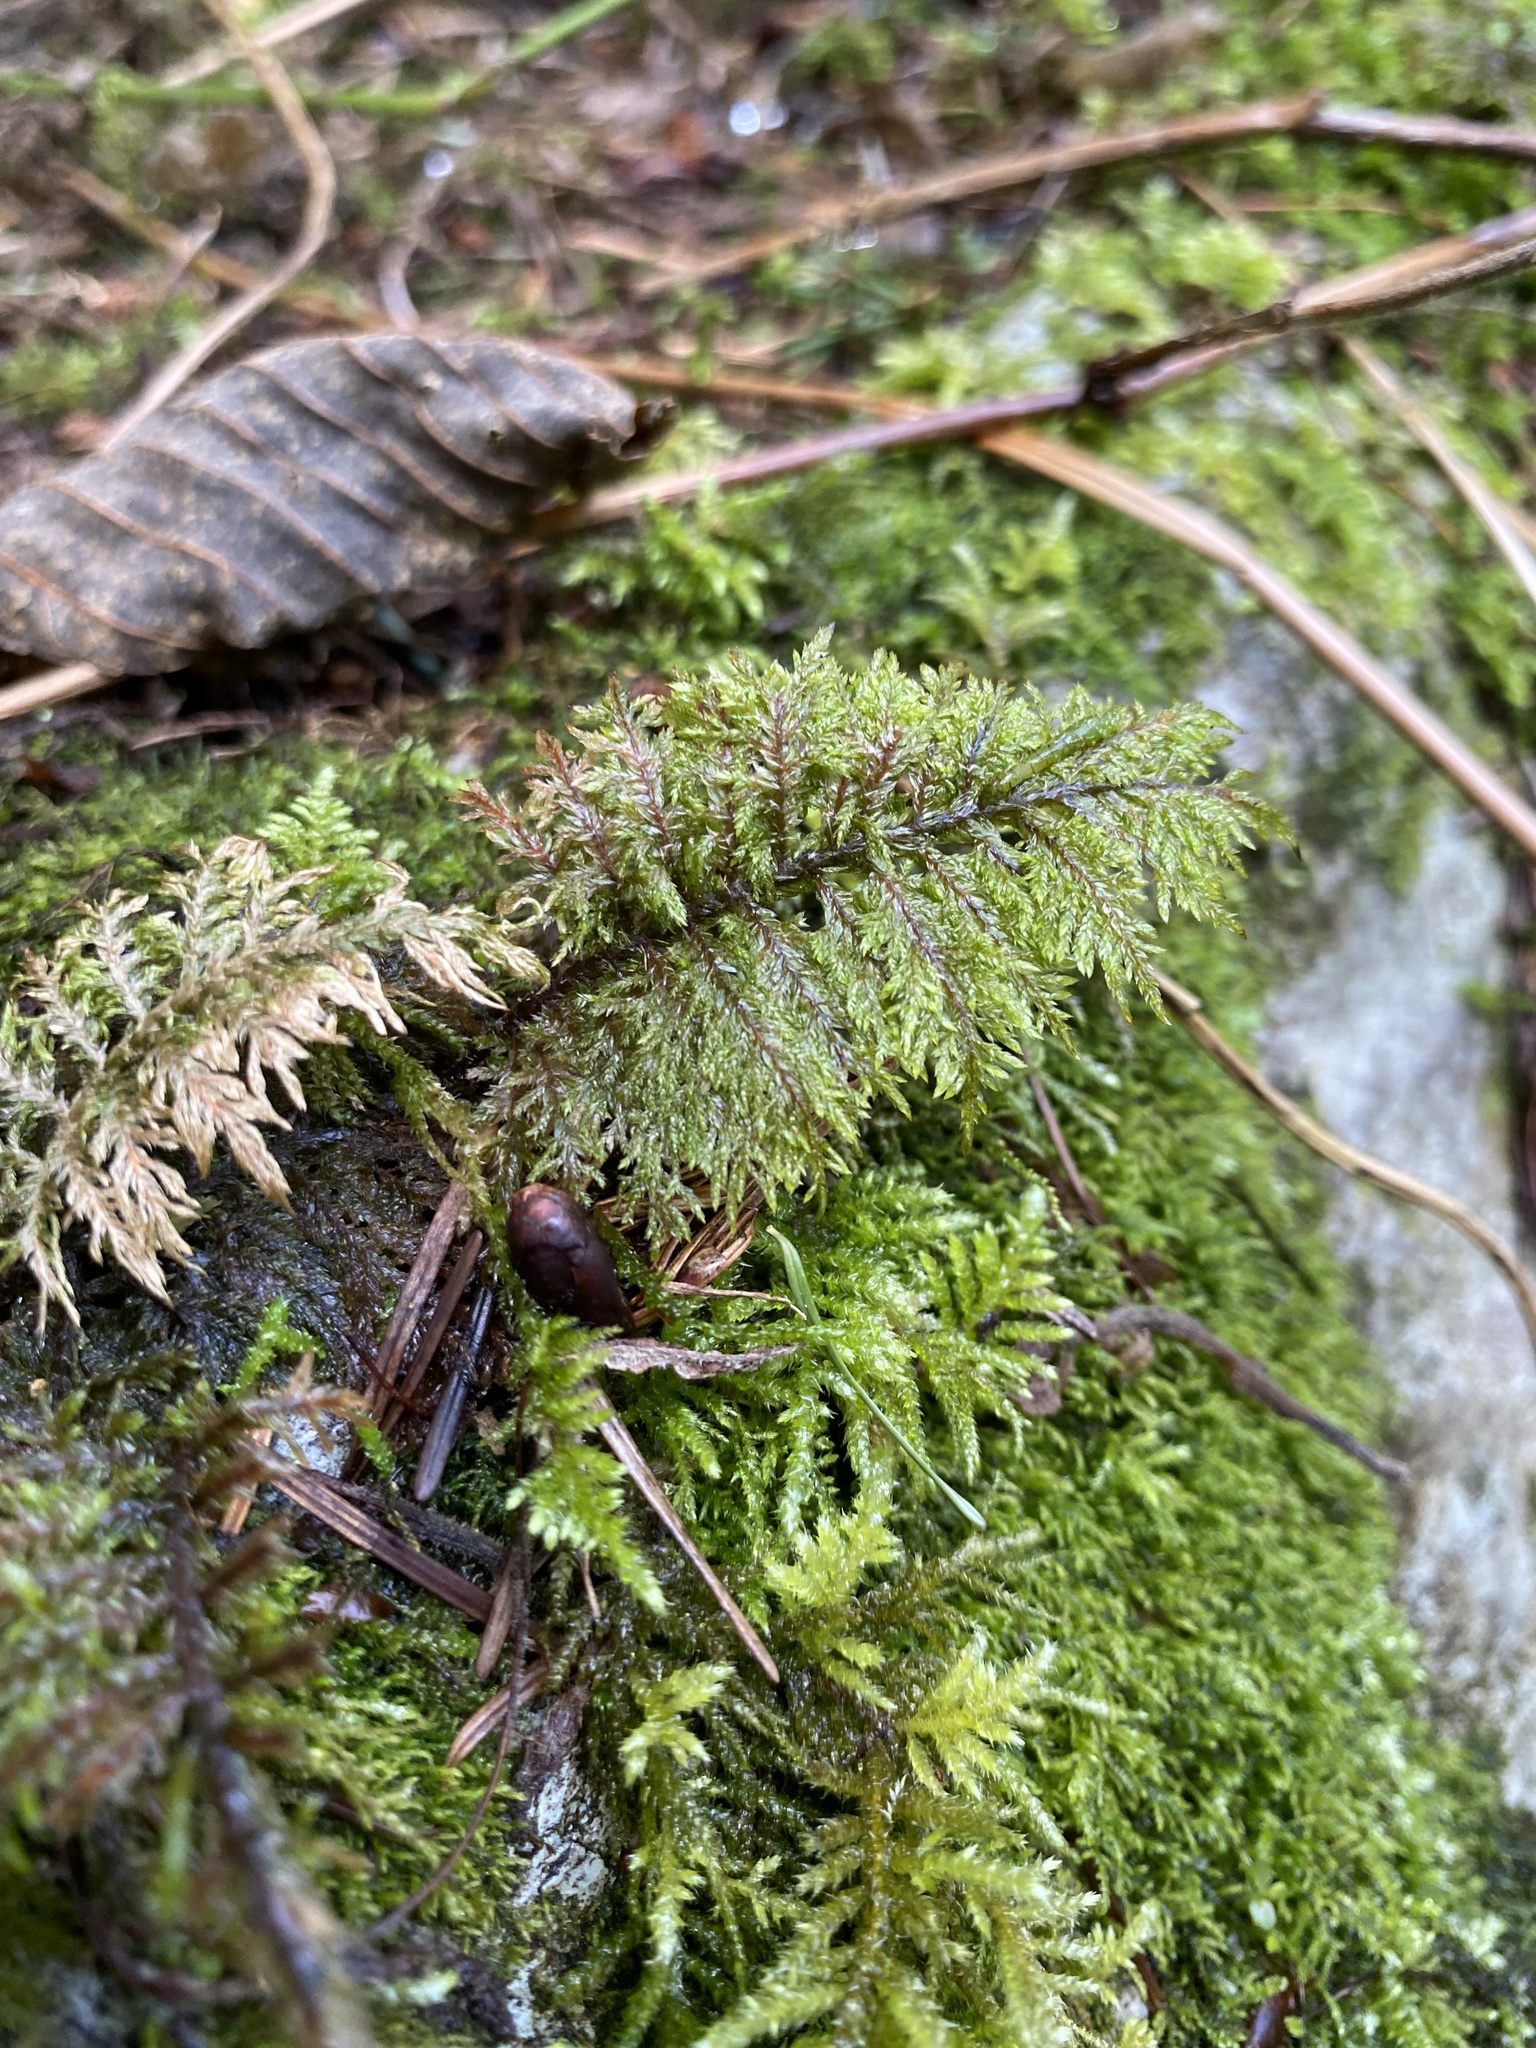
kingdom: Plantae
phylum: Bryophyta
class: Bryopsida
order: Hypnales
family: Hylocomiaceae
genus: Hylocomium
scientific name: Hylocomium splendens
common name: Stairstep moss
